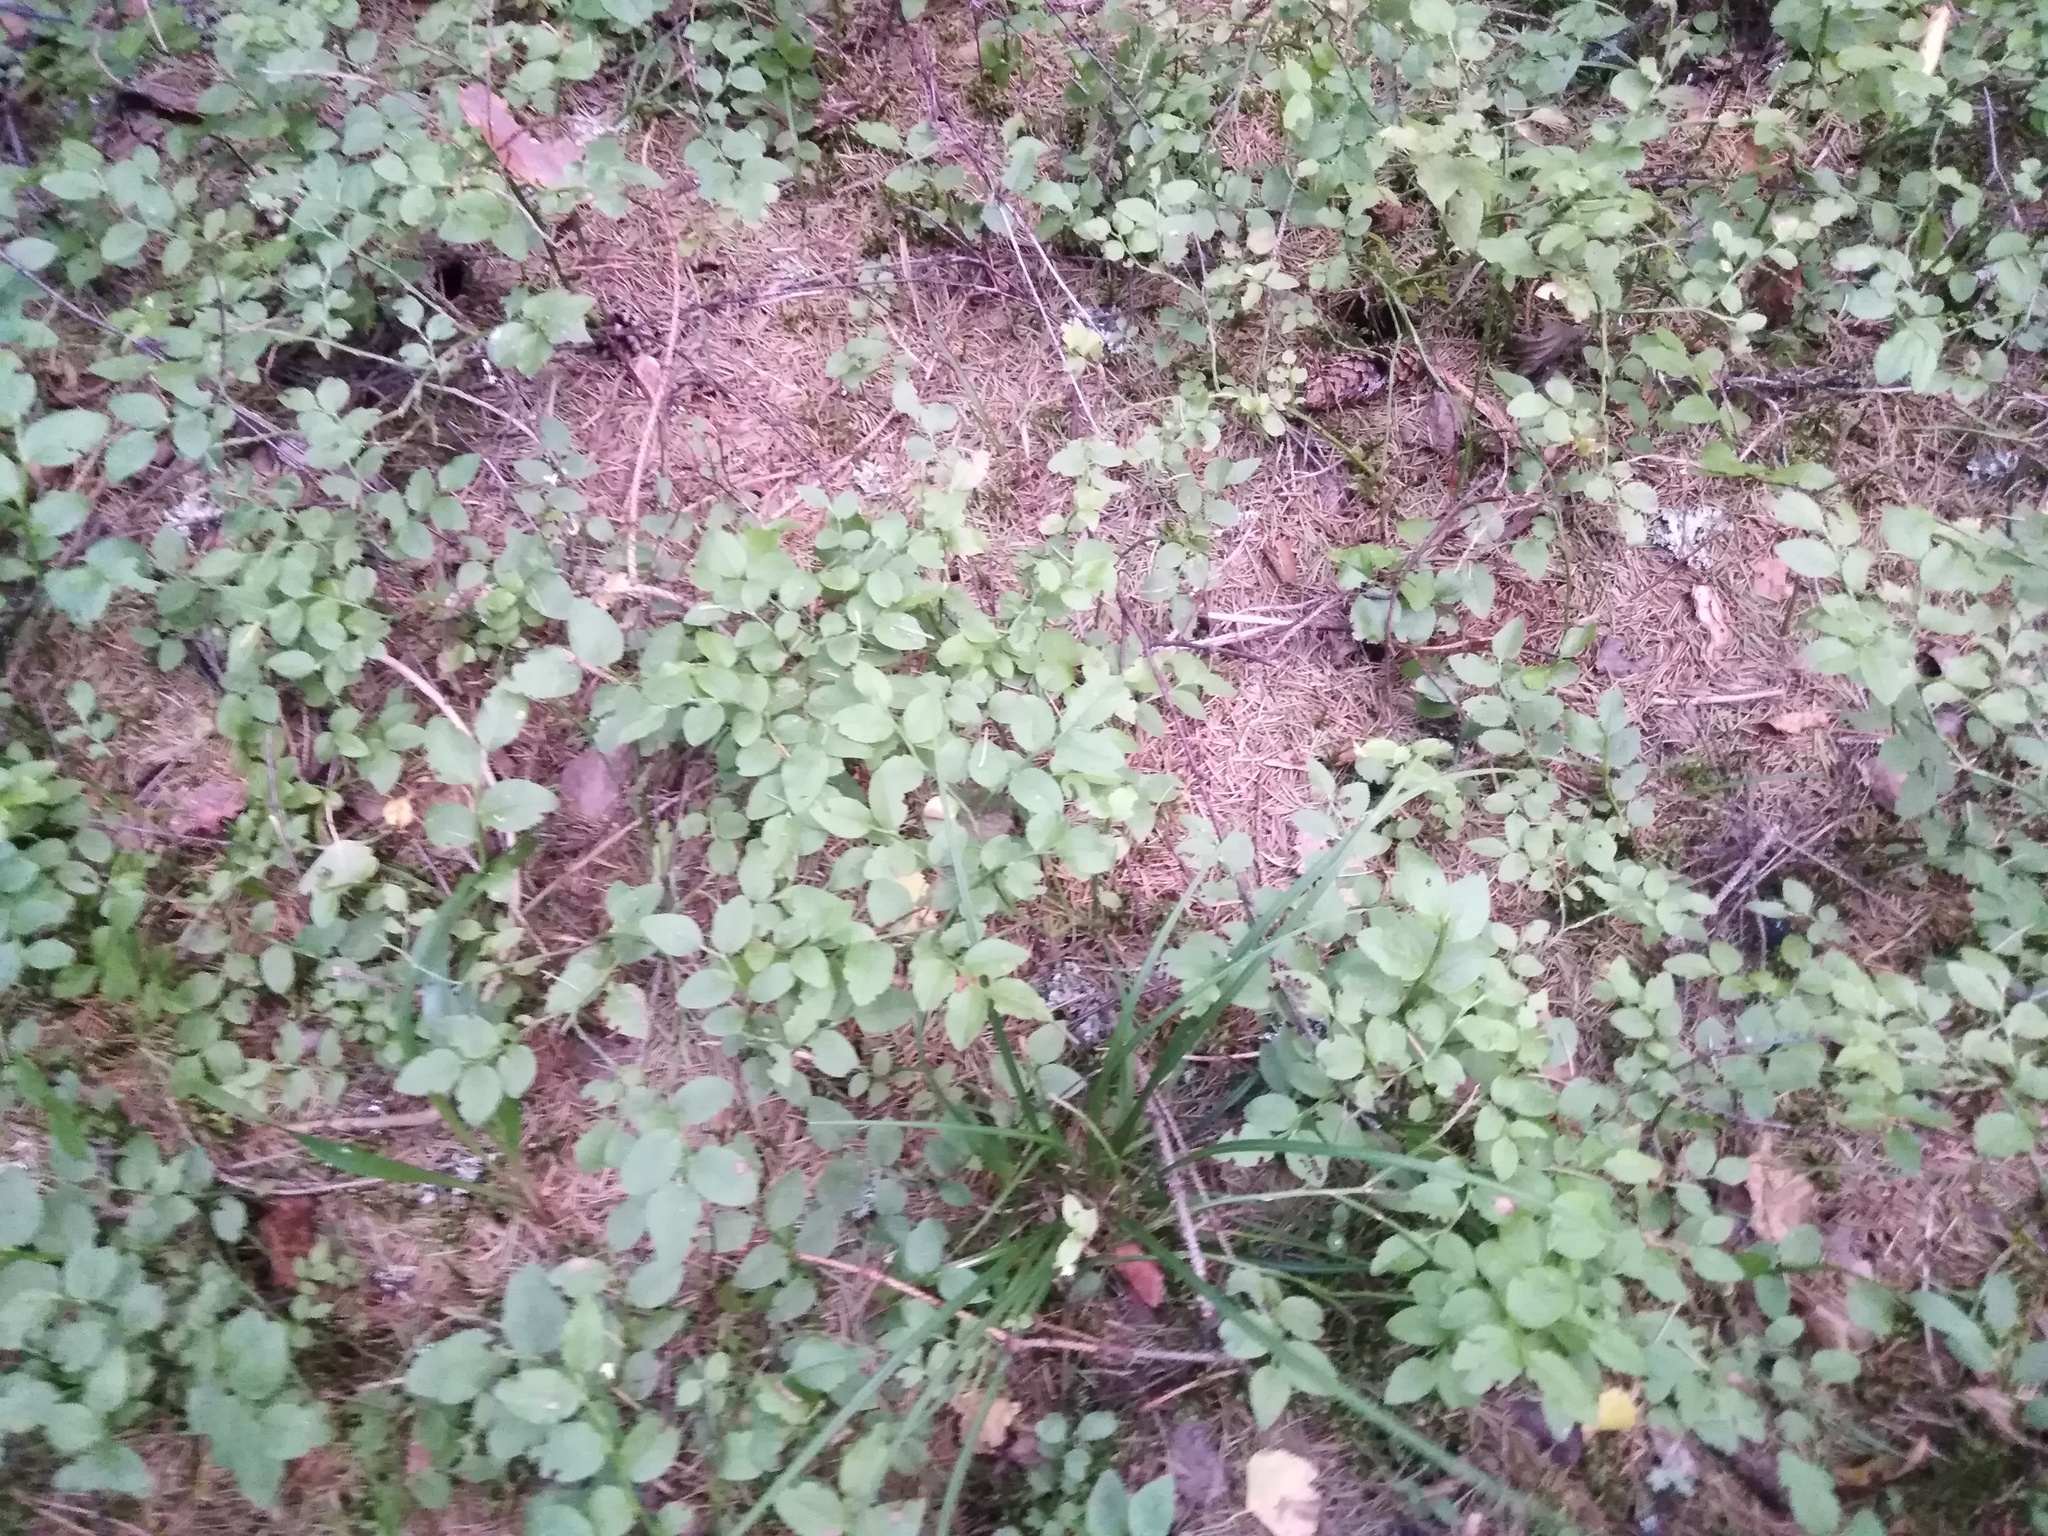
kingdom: Plantae
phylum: Tracheophyta
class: Magnoliopsida
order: Ericales
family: Ericaceae
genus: Vaccinium
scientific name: Vaccinium myrtillus
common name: Bilberry
